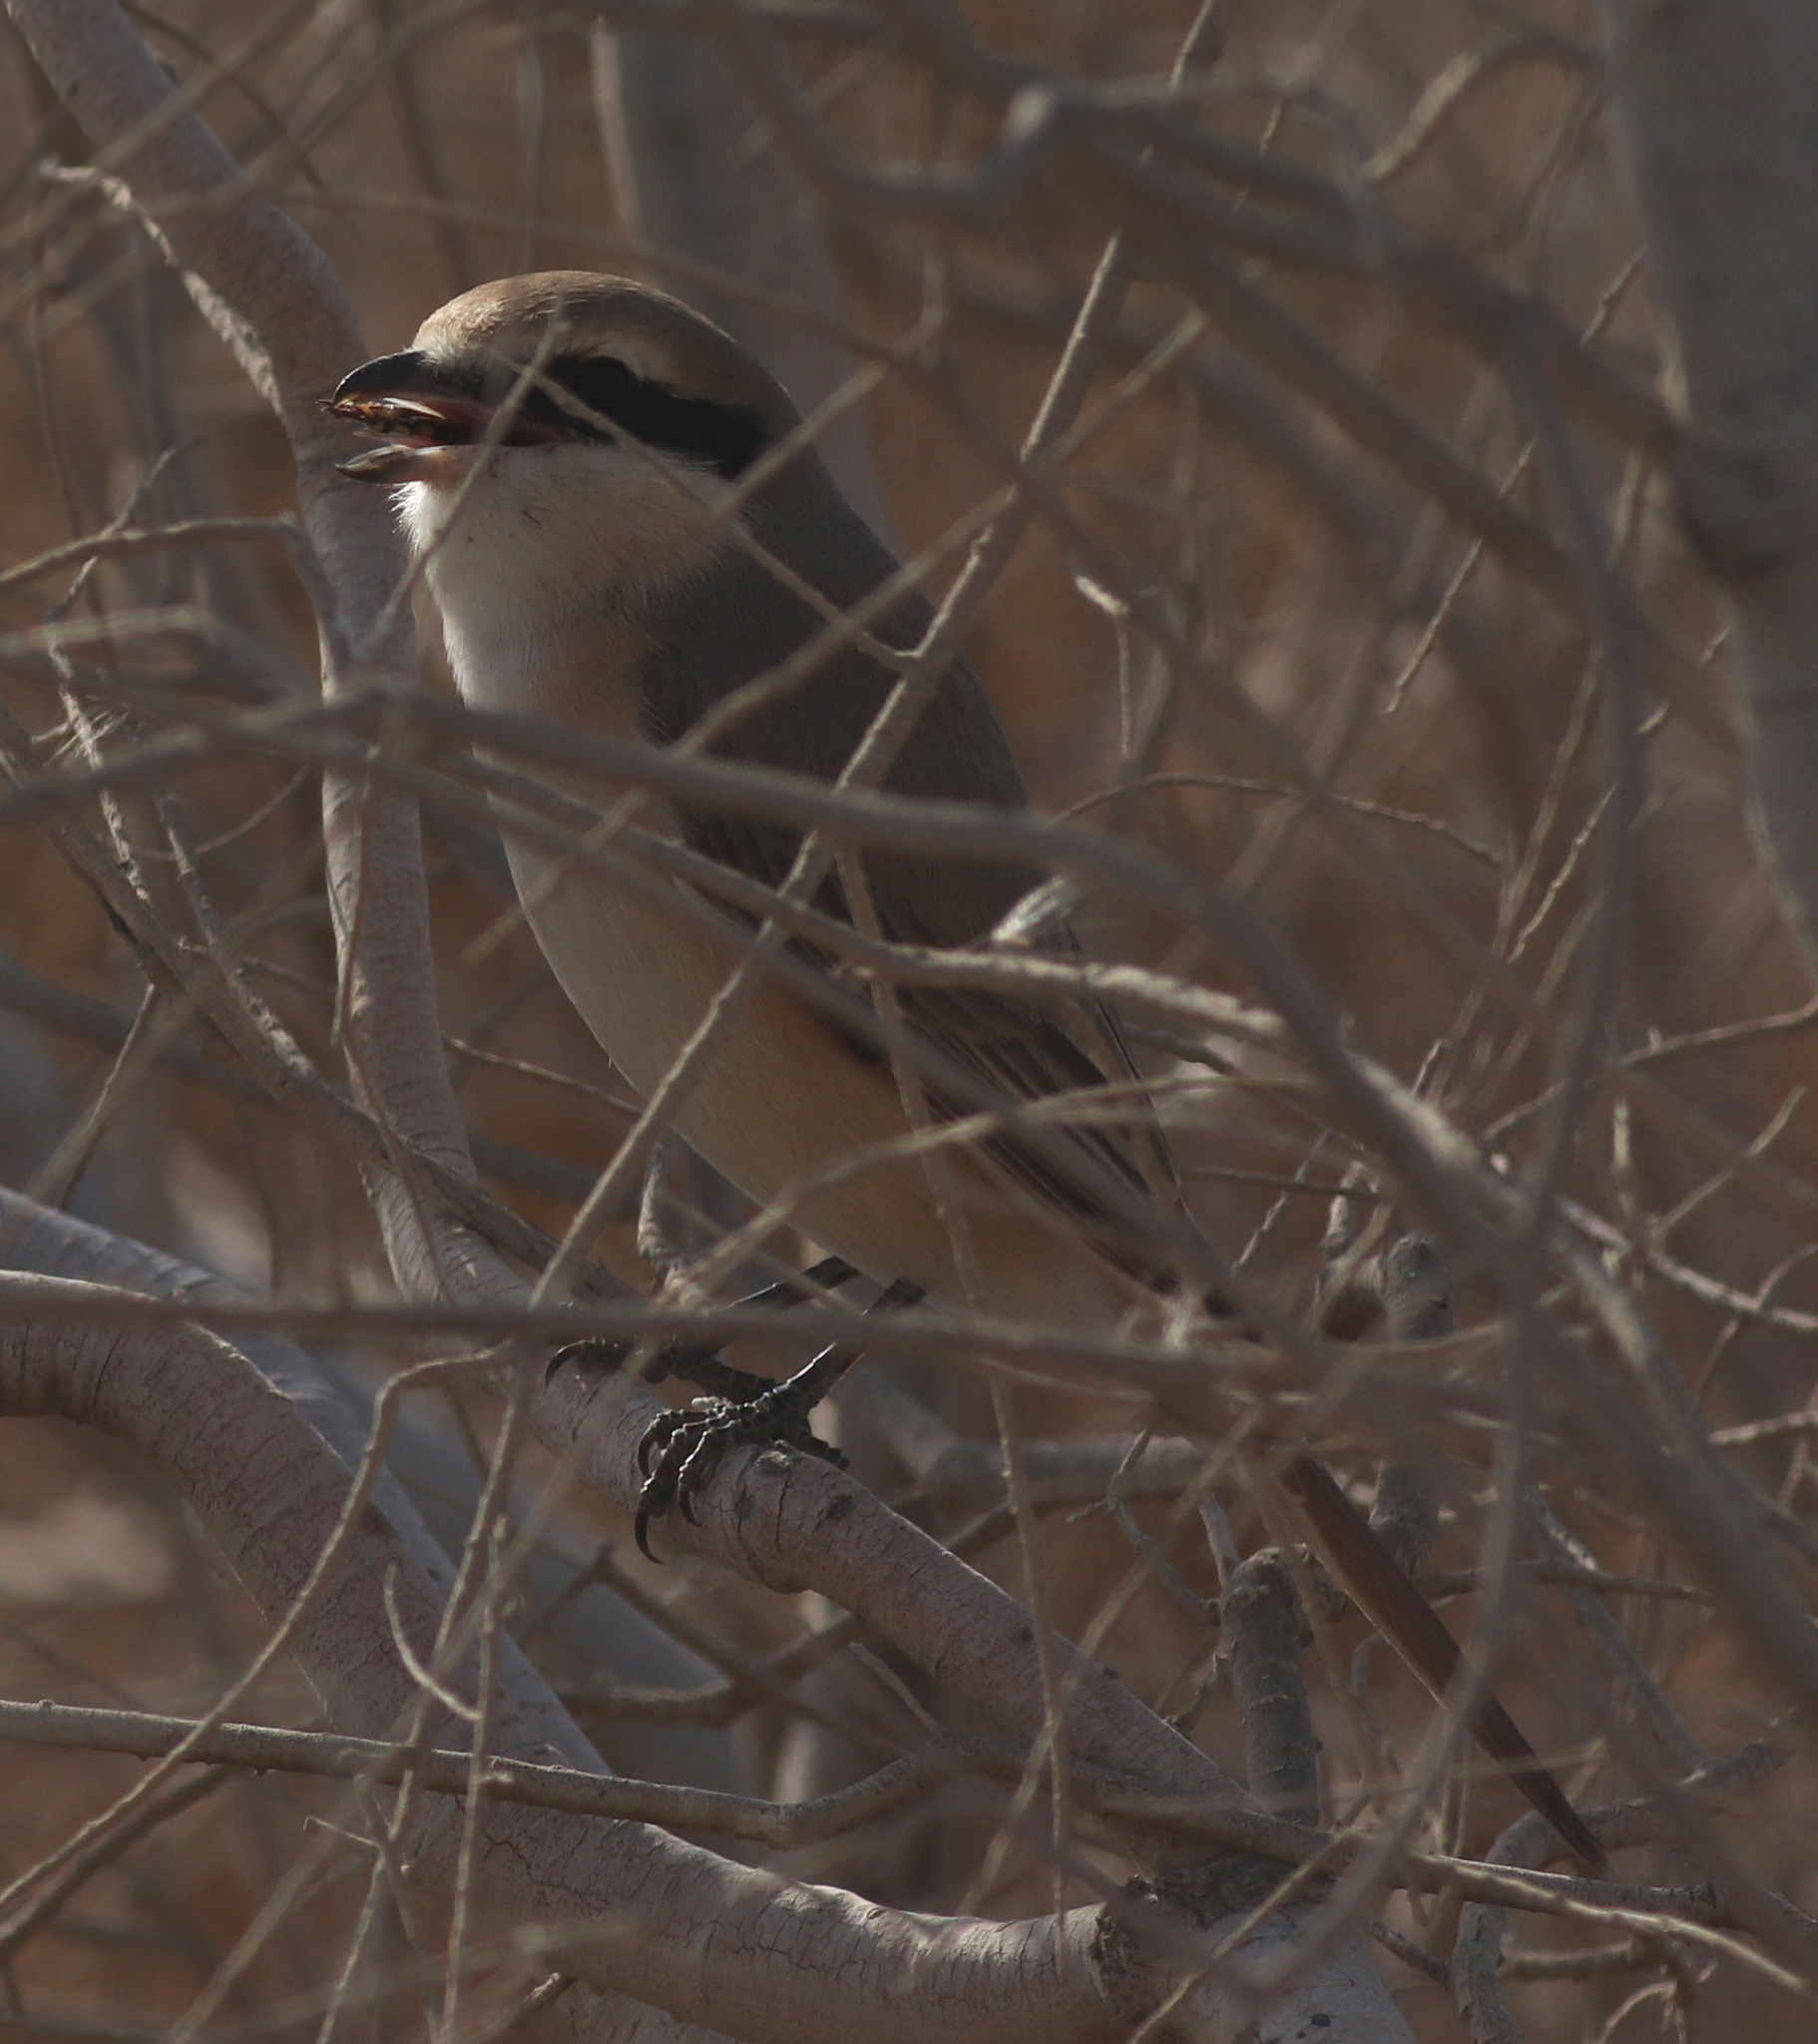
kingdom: Animalia
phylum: Chordata
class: Aves
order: Passeriformes
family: Laniidae
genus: Lanius
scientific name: Lanius isabellinus
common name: Isabelline shrike
